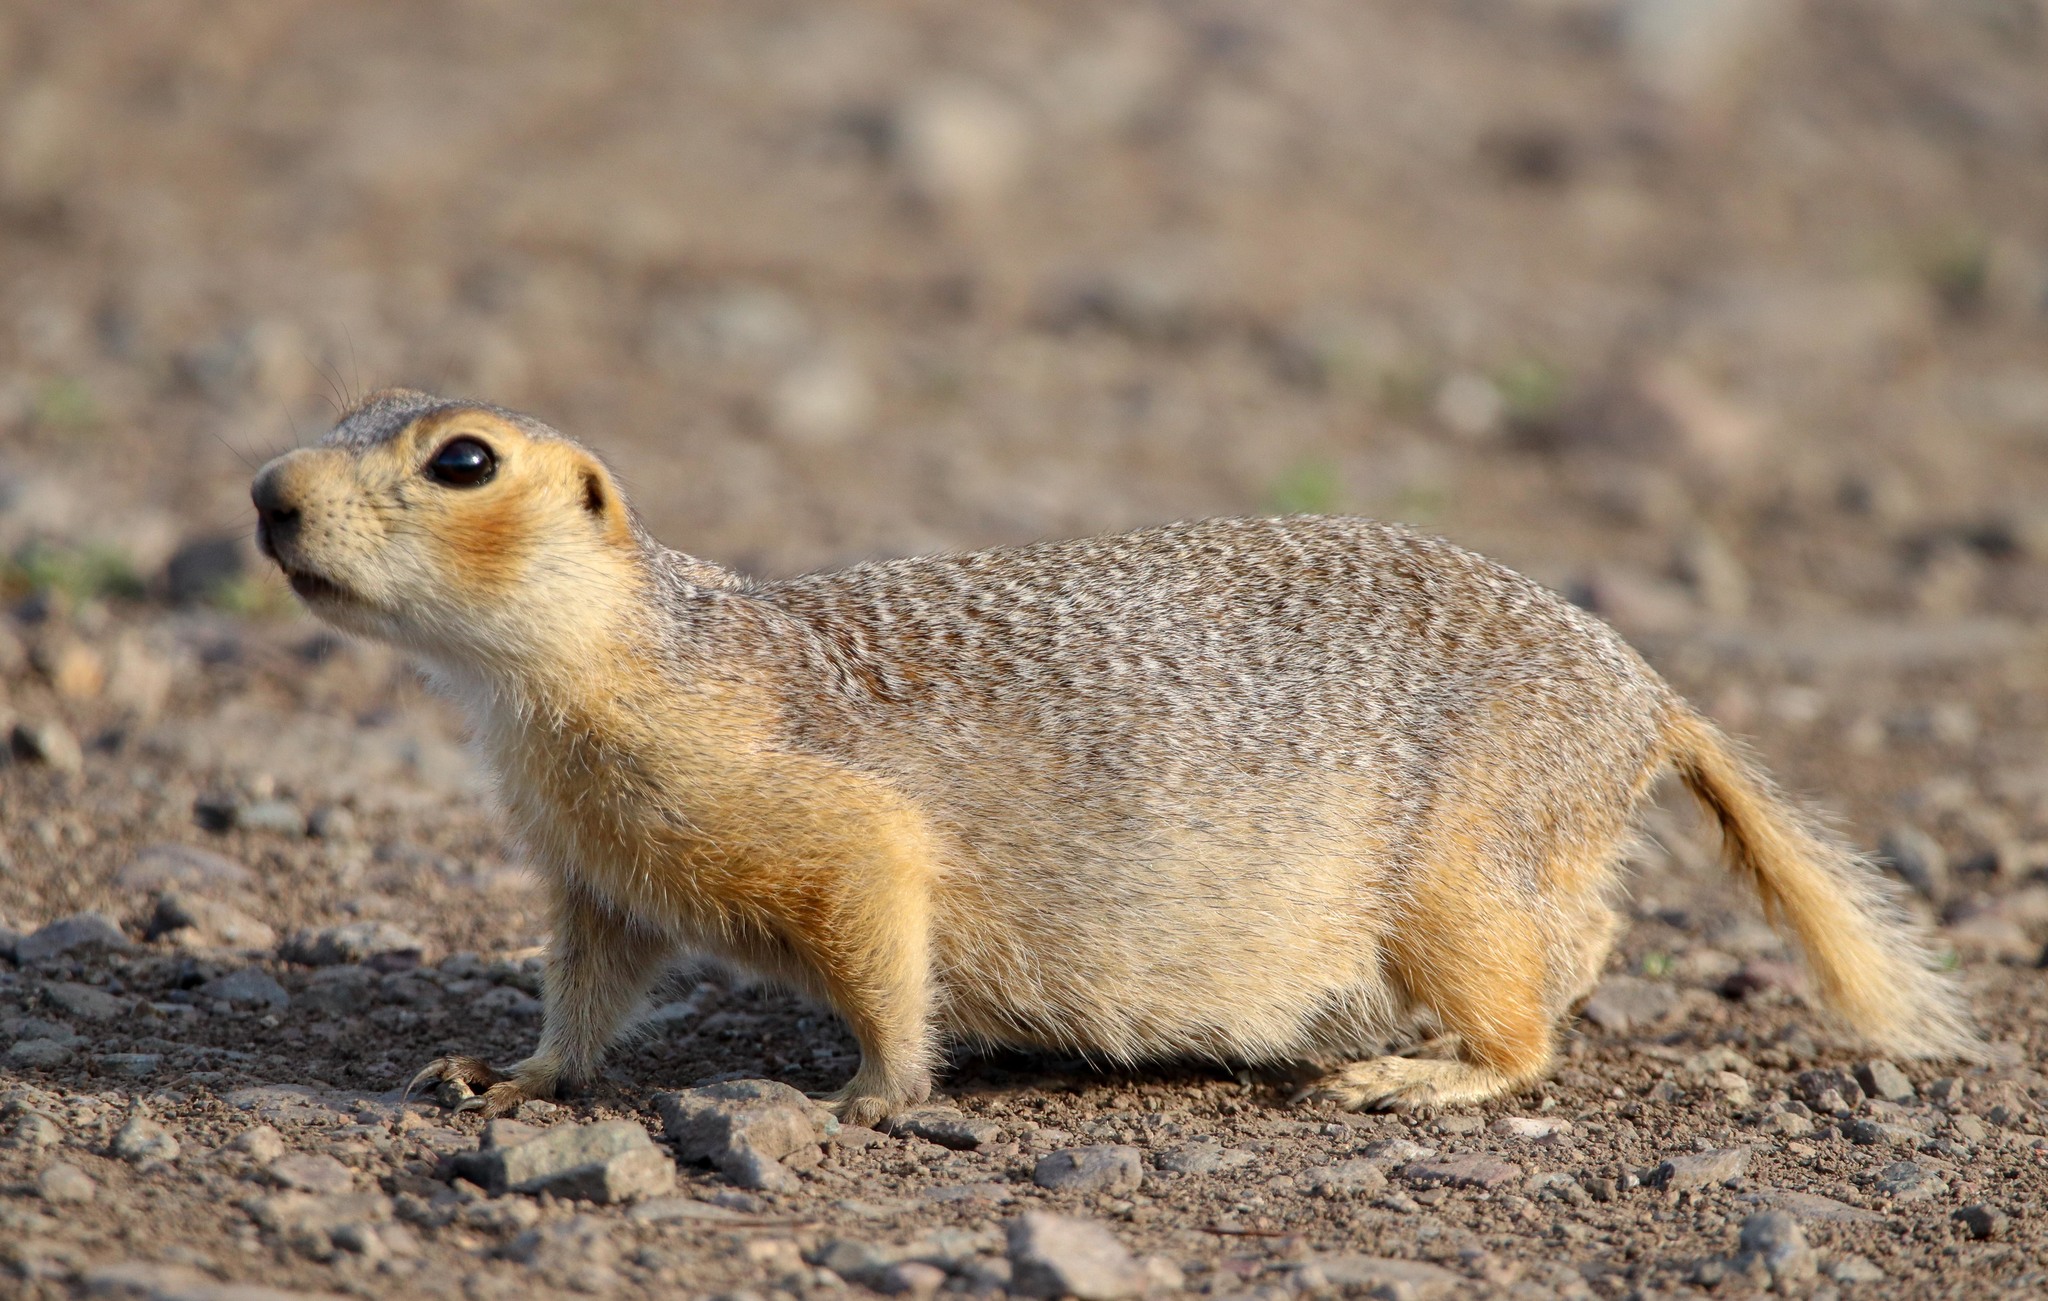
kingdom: Animalia
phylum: Chordata
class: Mammalia
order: Rodentia
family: Sciuridae
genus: Spermophilus
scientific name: Spermophilus major
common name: Russet ground squirrel
